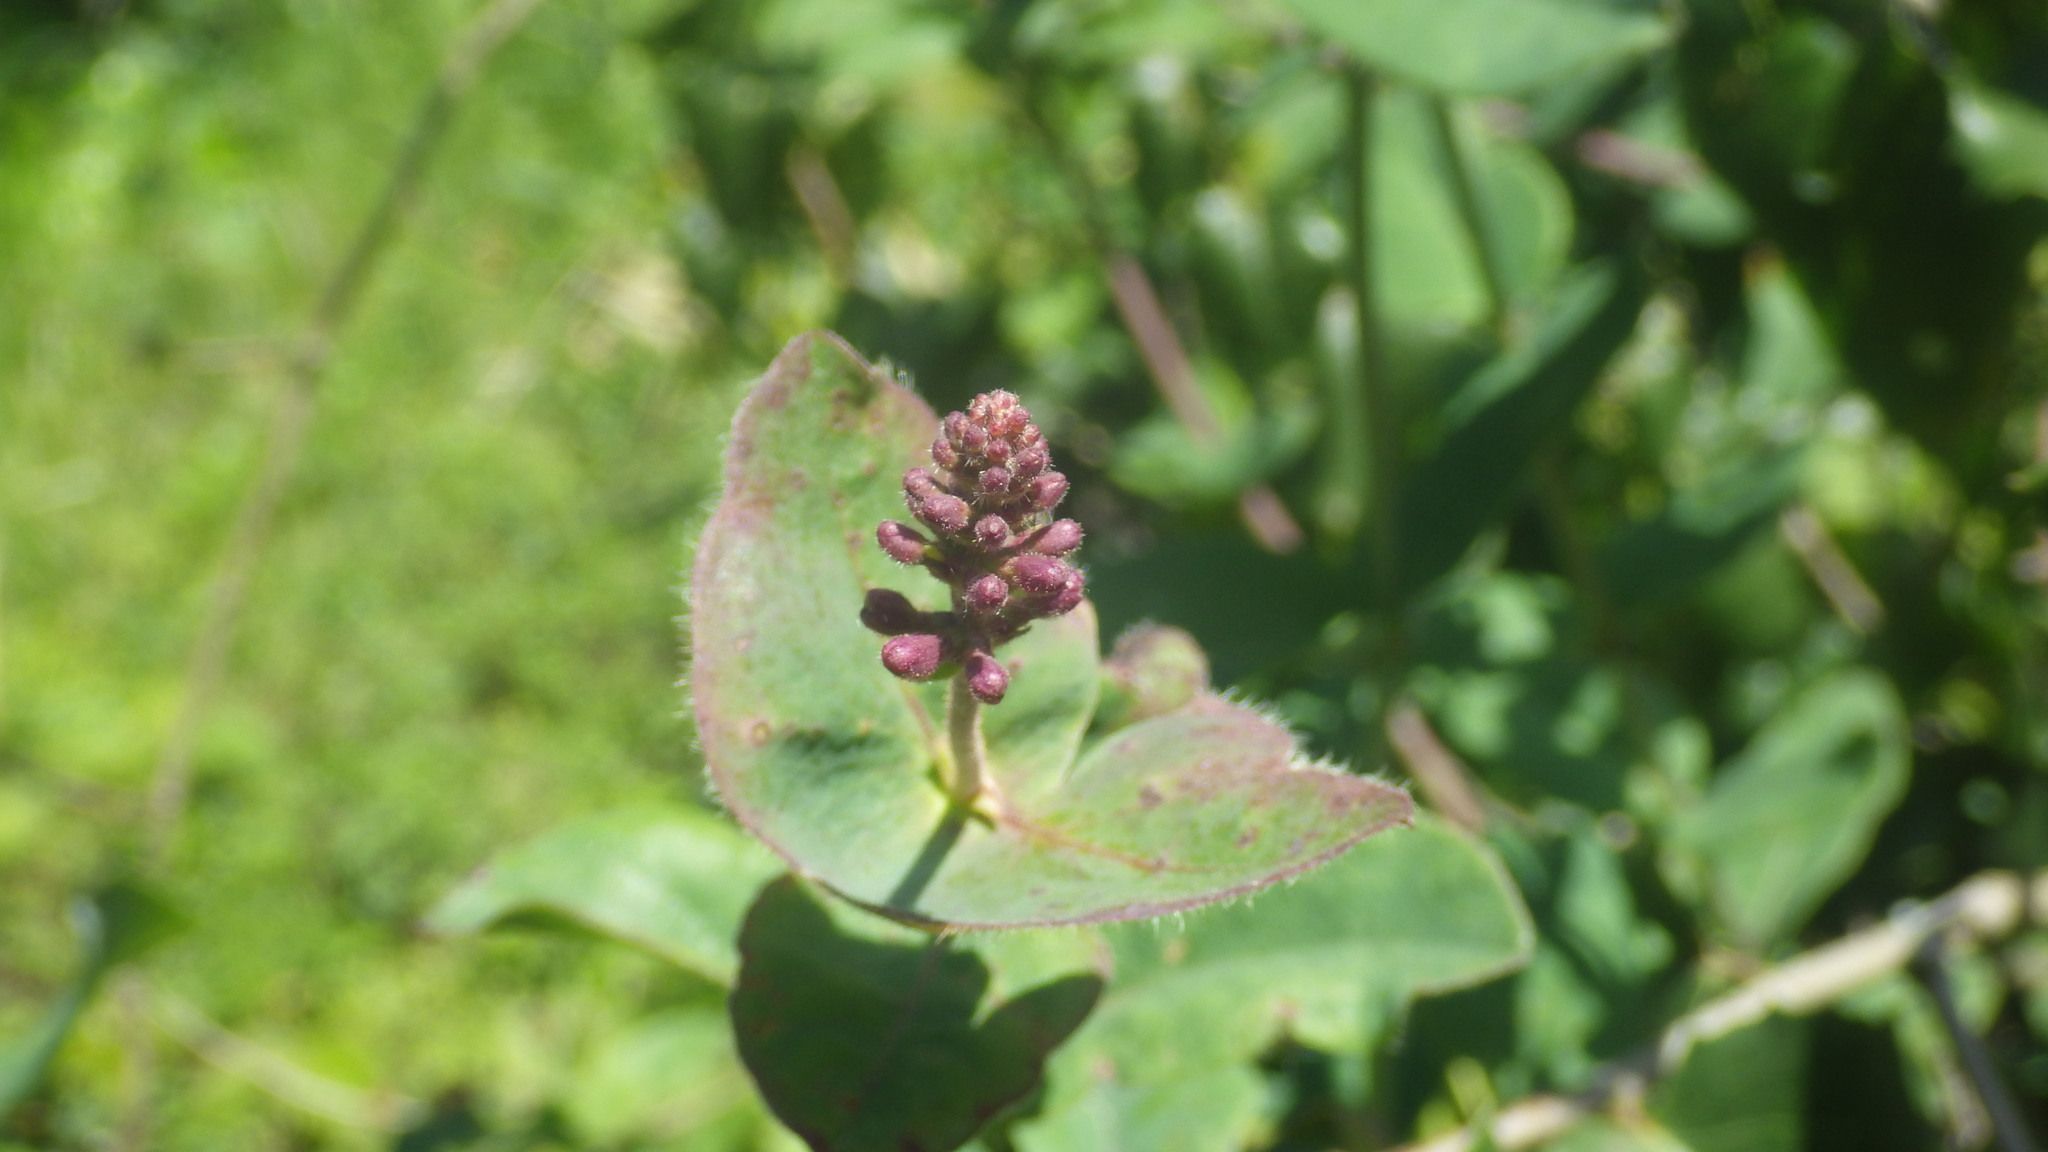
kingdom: Plantae
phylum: Tracheophyta
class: Magnoliopsida
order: Dipsacales
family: Caprifoliaceae
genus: Lonicera
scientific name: Lonicera hispidula
